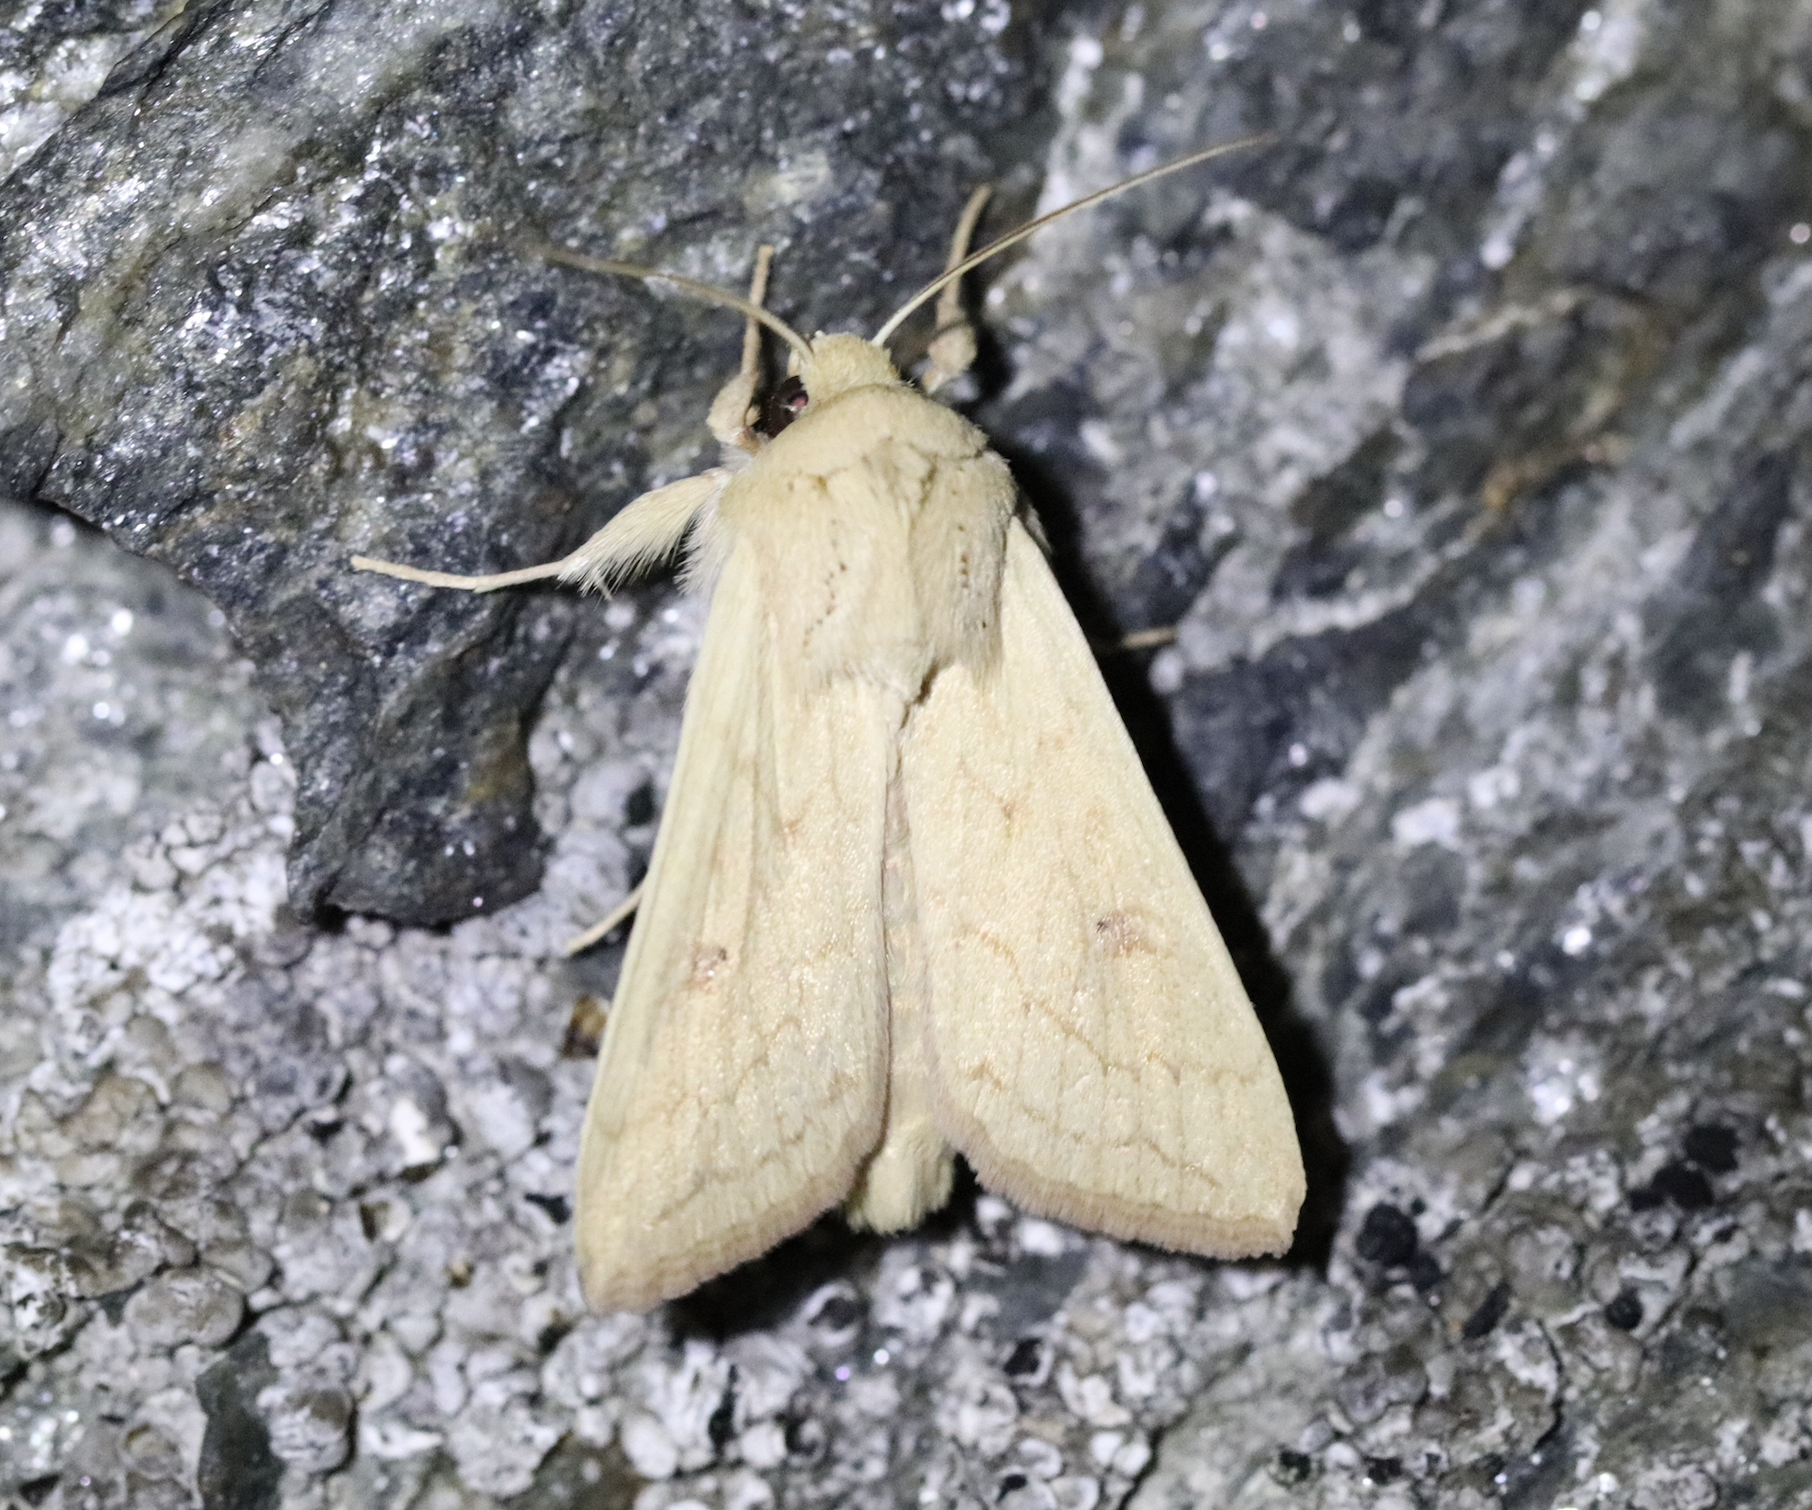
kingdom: Animalia
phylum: Arthropoda
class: Insecta
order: Lepidoptera
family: Noctuidae
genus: Mythimna
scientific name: Mythimna vitellina
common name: Delicate
